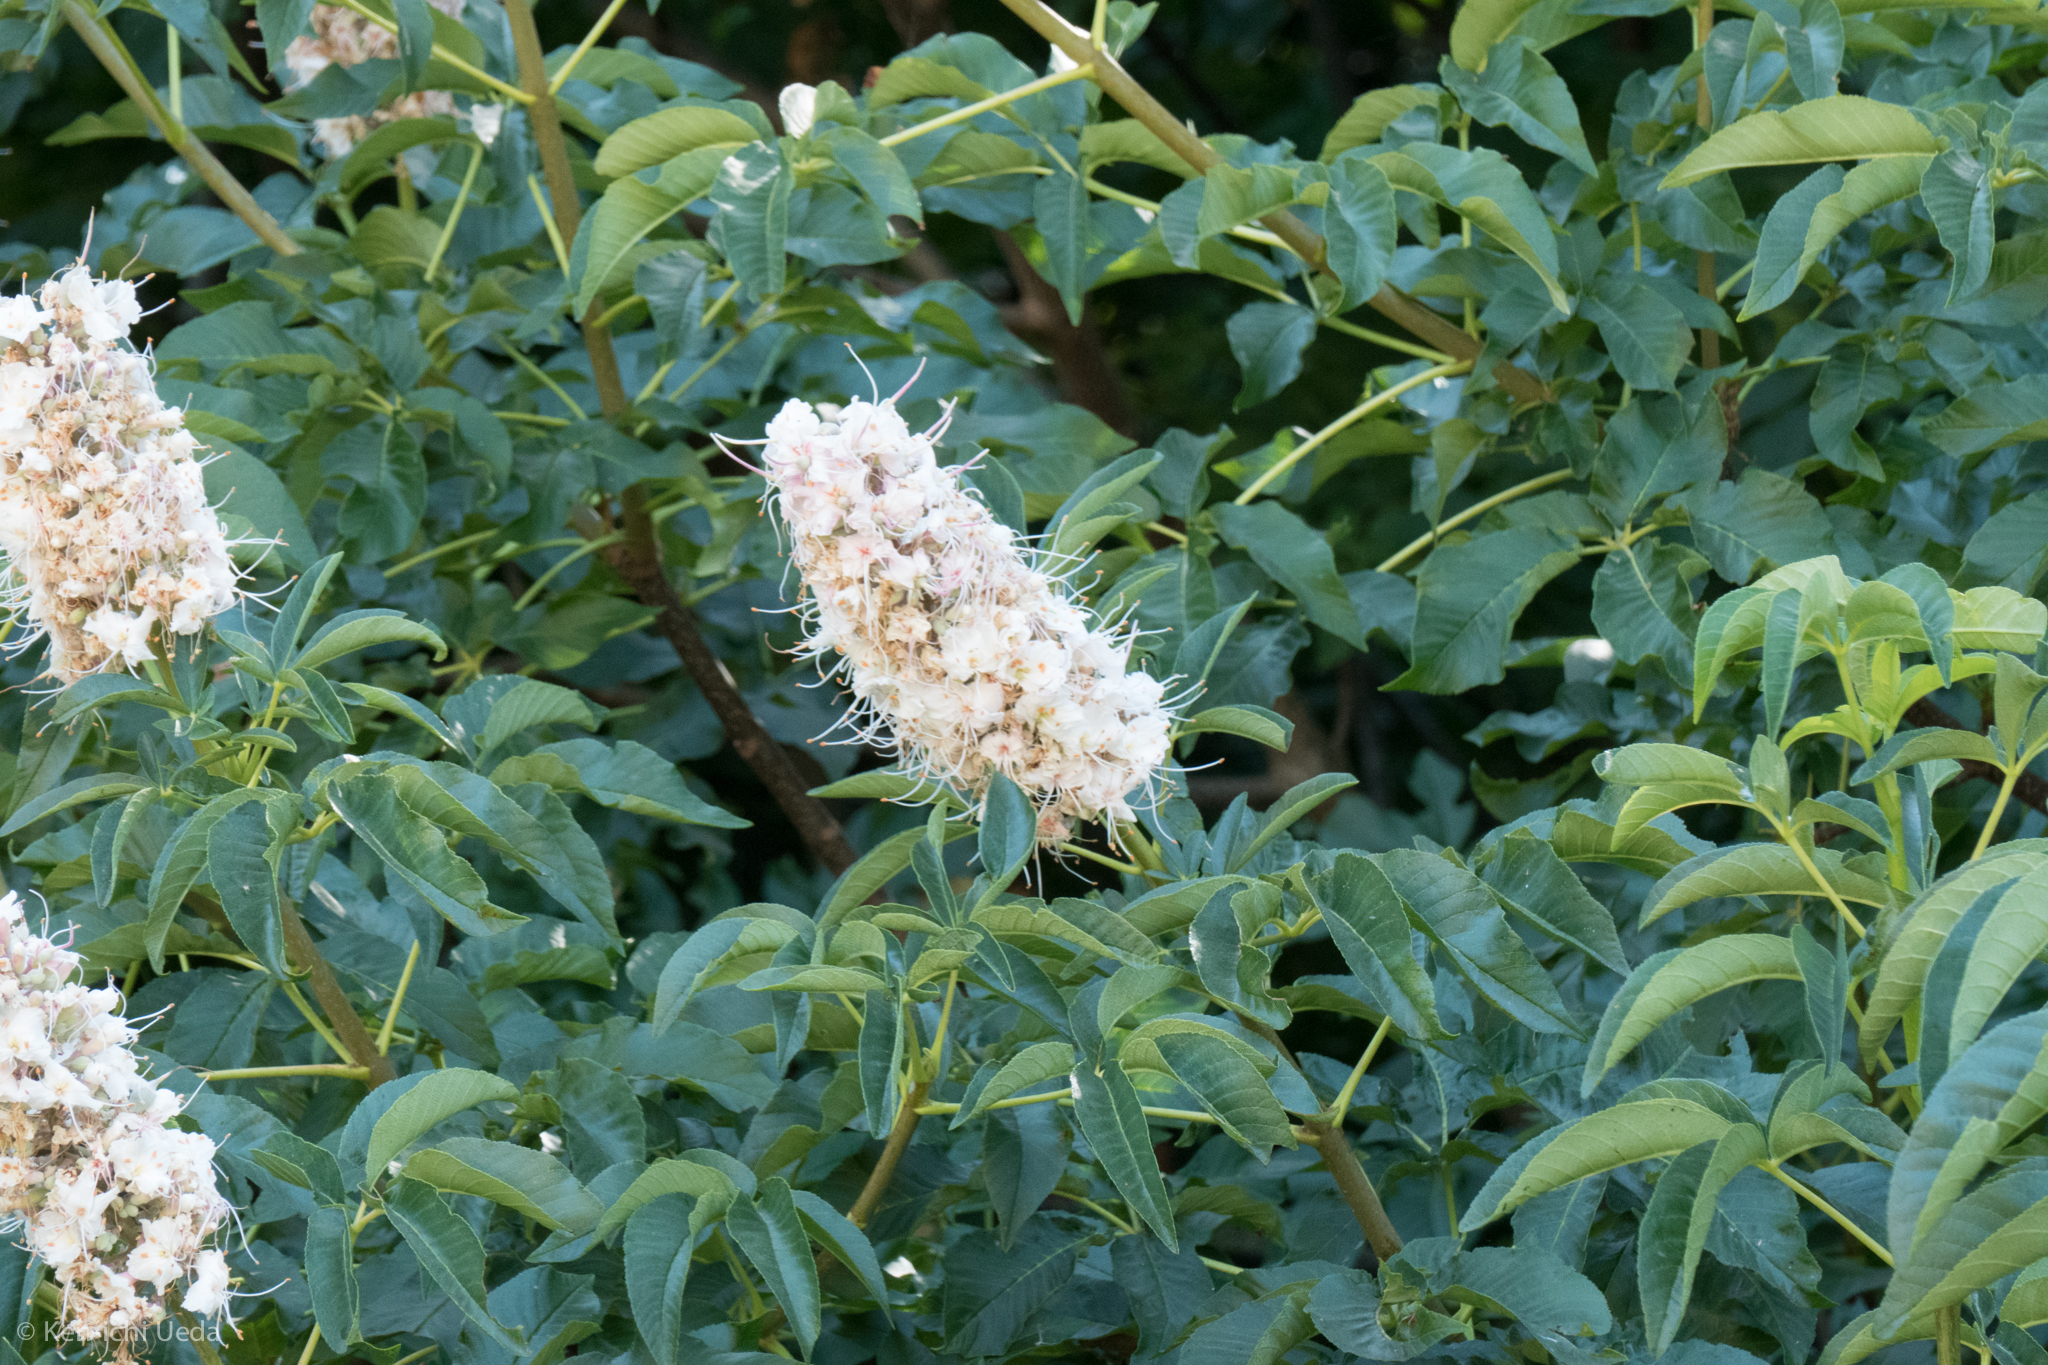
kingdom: Plantae
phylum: Tracheophyta
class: Magnoliopsida
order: Sapindales
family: Sapindaceae
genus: Aesculus
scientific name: Aesculus californica
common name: California buckeye
